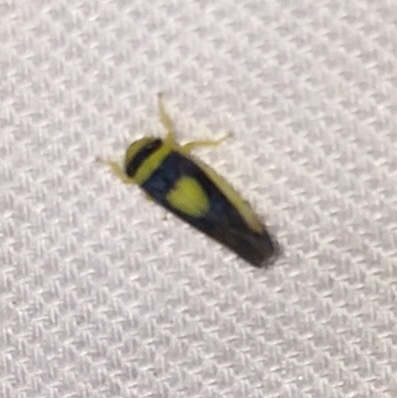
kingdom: Animalia
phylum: Arthropoda
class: Insecta
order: Hemiptera
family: Cicadellidae
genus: Colladonus
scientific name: Colladonus clitellarius
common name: The saddleback leafhopper
